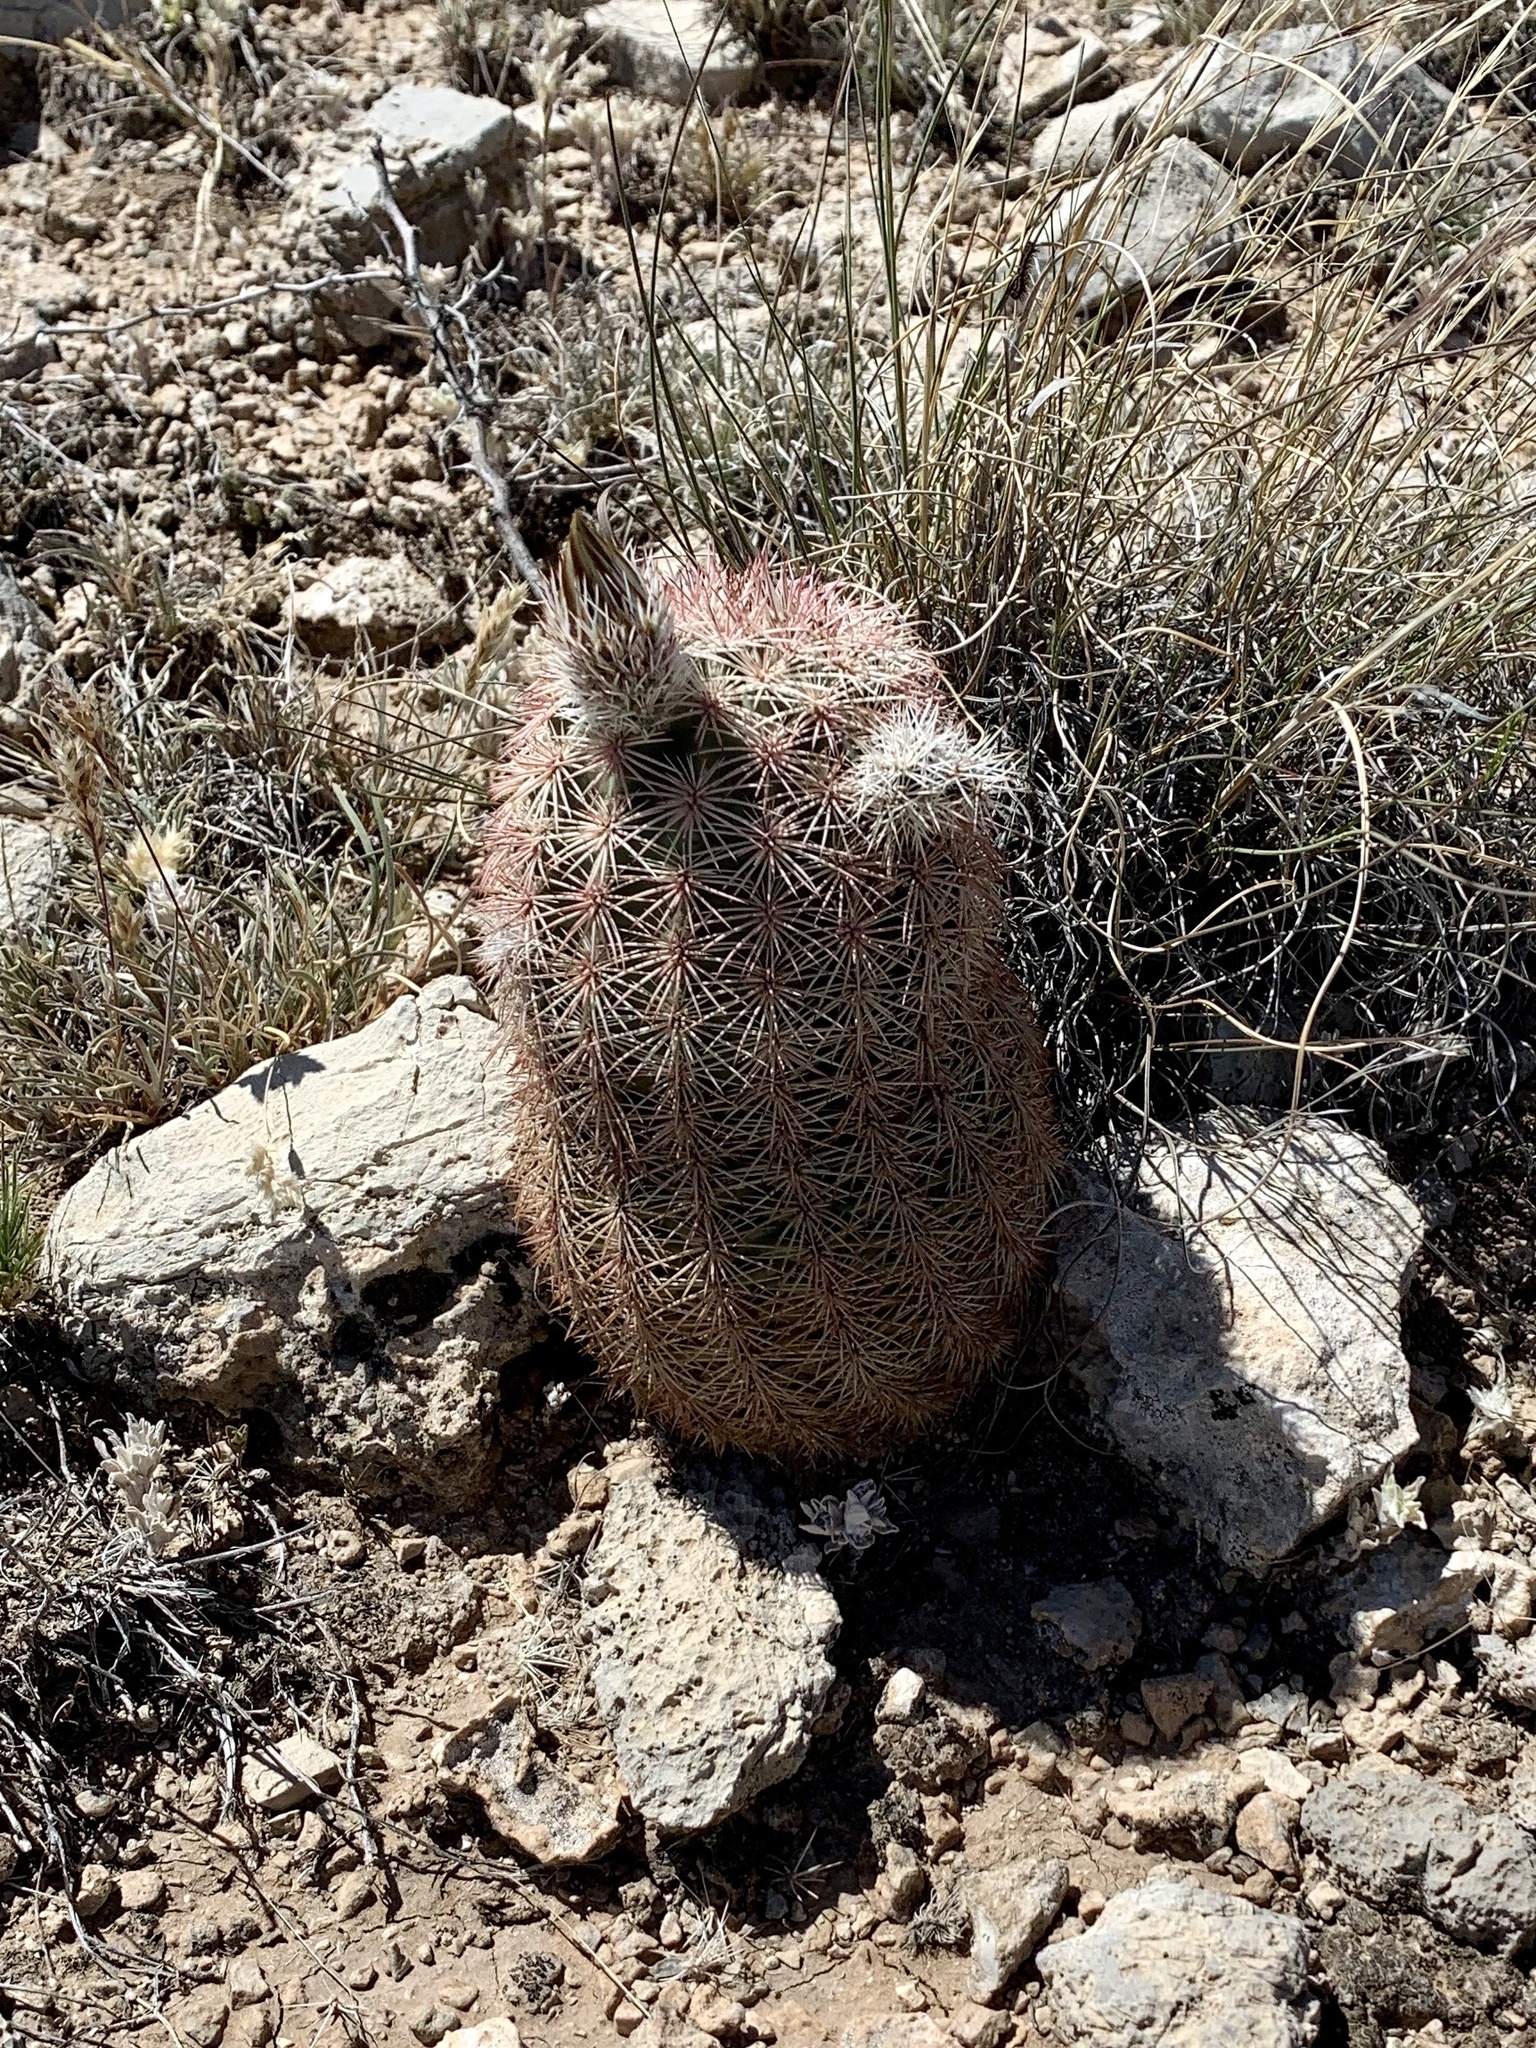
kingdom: Plantae
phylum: Tracheophyta
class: Magnoliopsida
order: Caryophyllales
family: Cactaceae
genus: Echinocereus
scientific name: Echinocereus dasyacanthus
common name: Spiny hedgehog cactus
